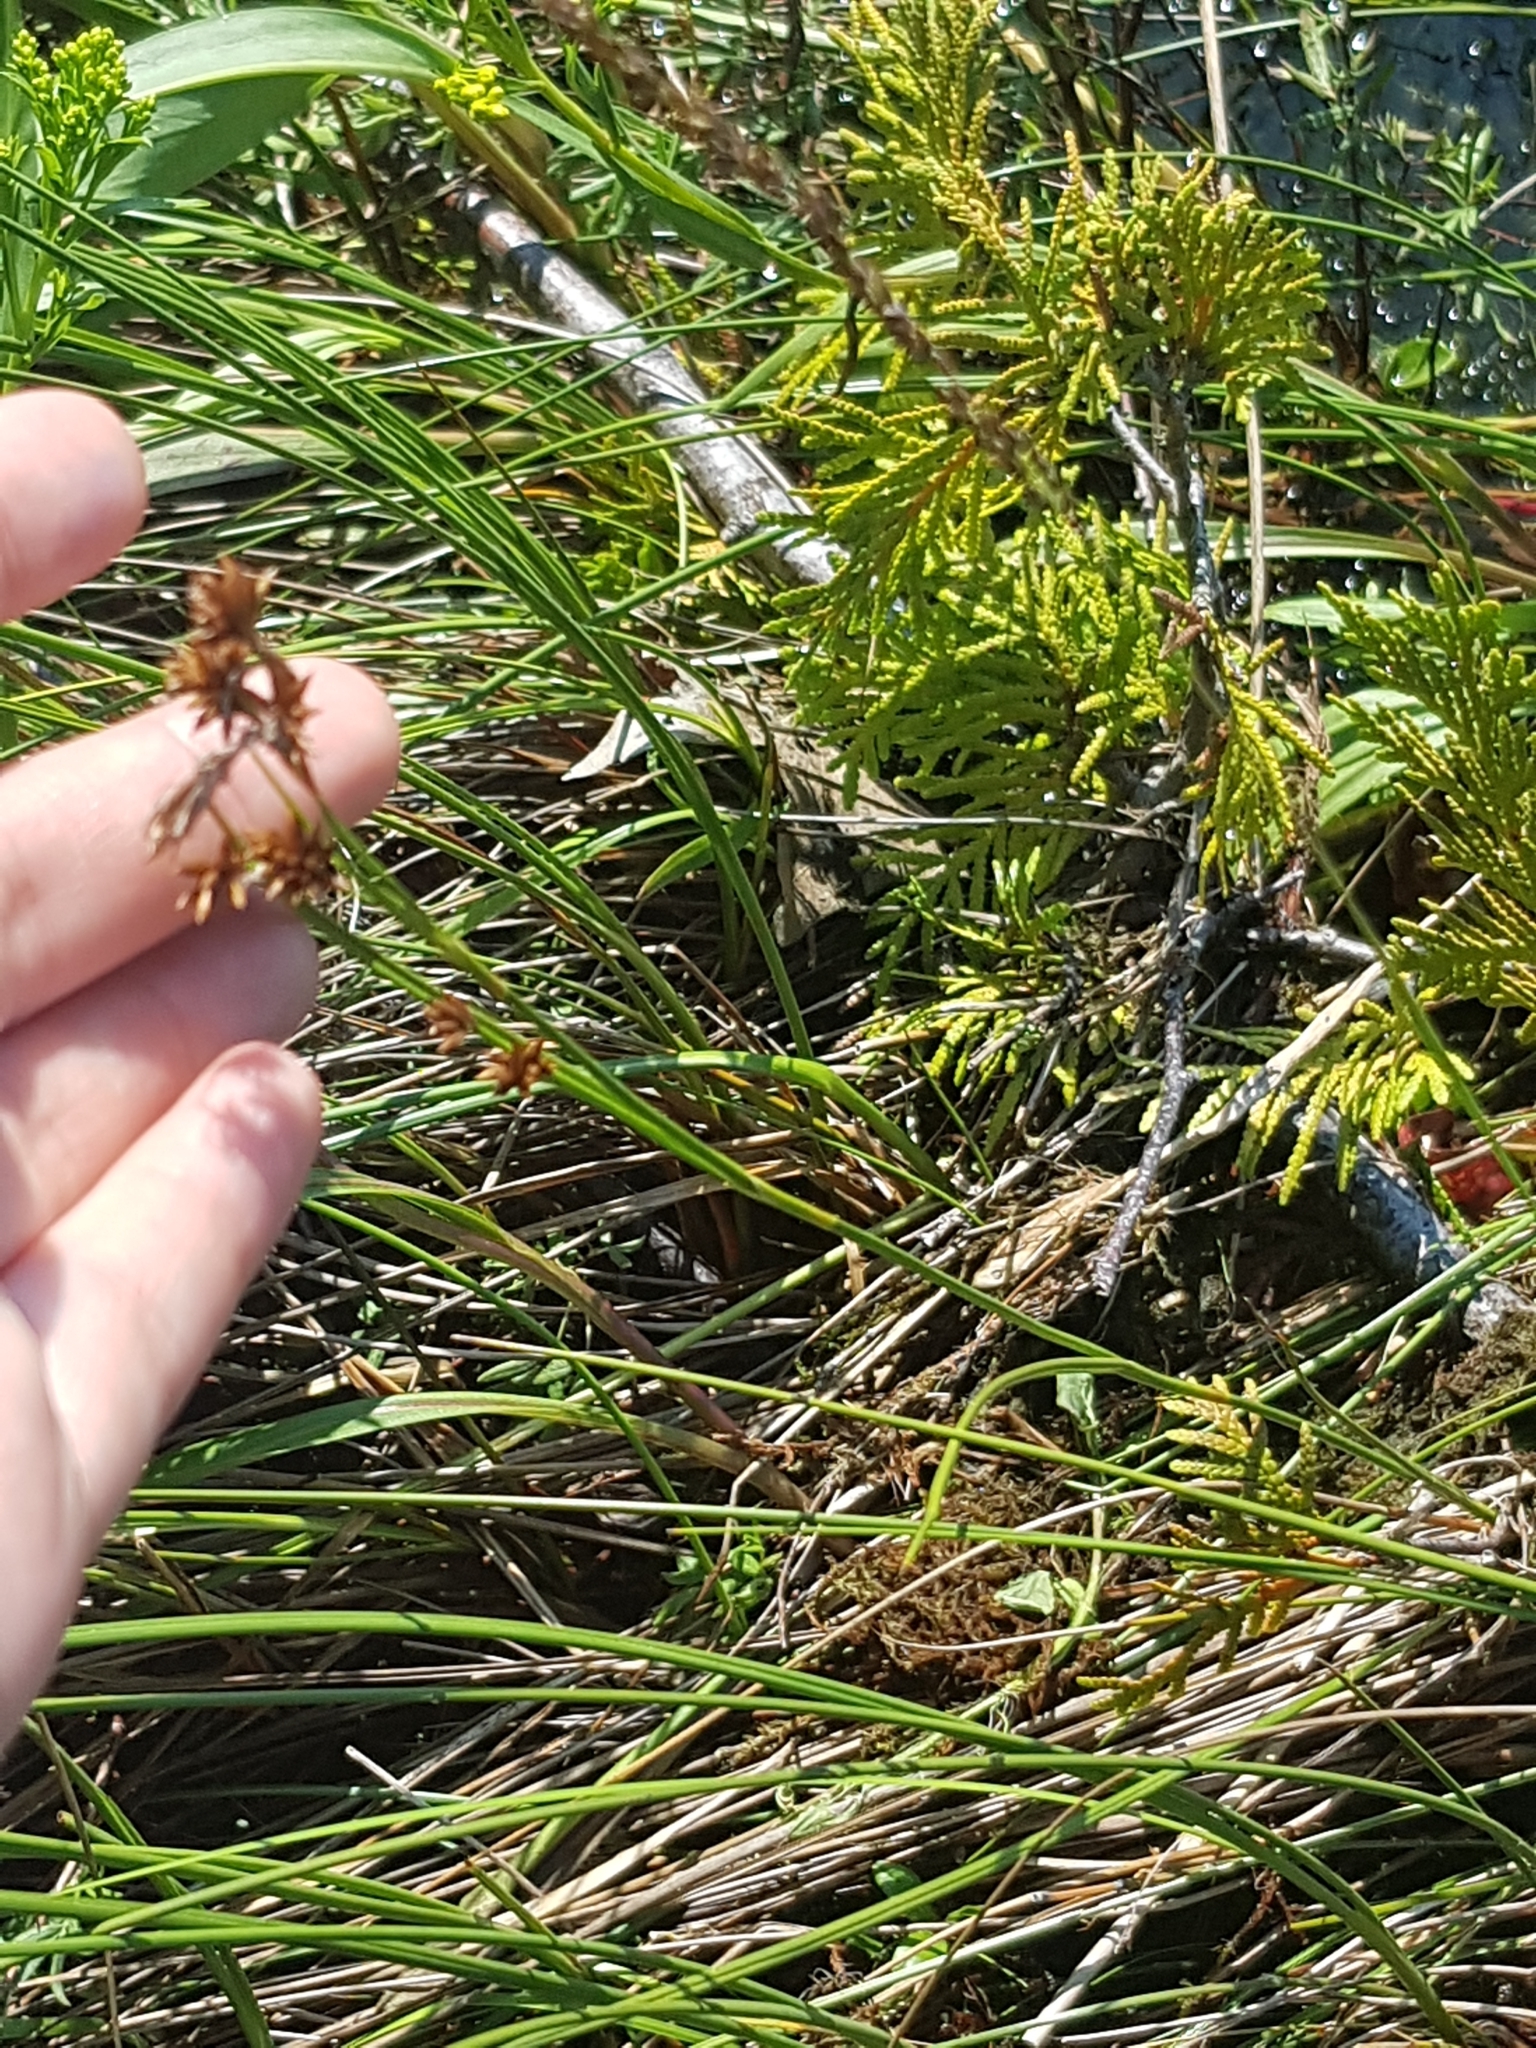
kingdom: Plantae
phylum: Tracheophyta
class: Liliopsida
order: Poales
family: Cyperaceae
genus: Cladium
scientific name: Cladium mariscoides
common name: Smooth sawgrass
